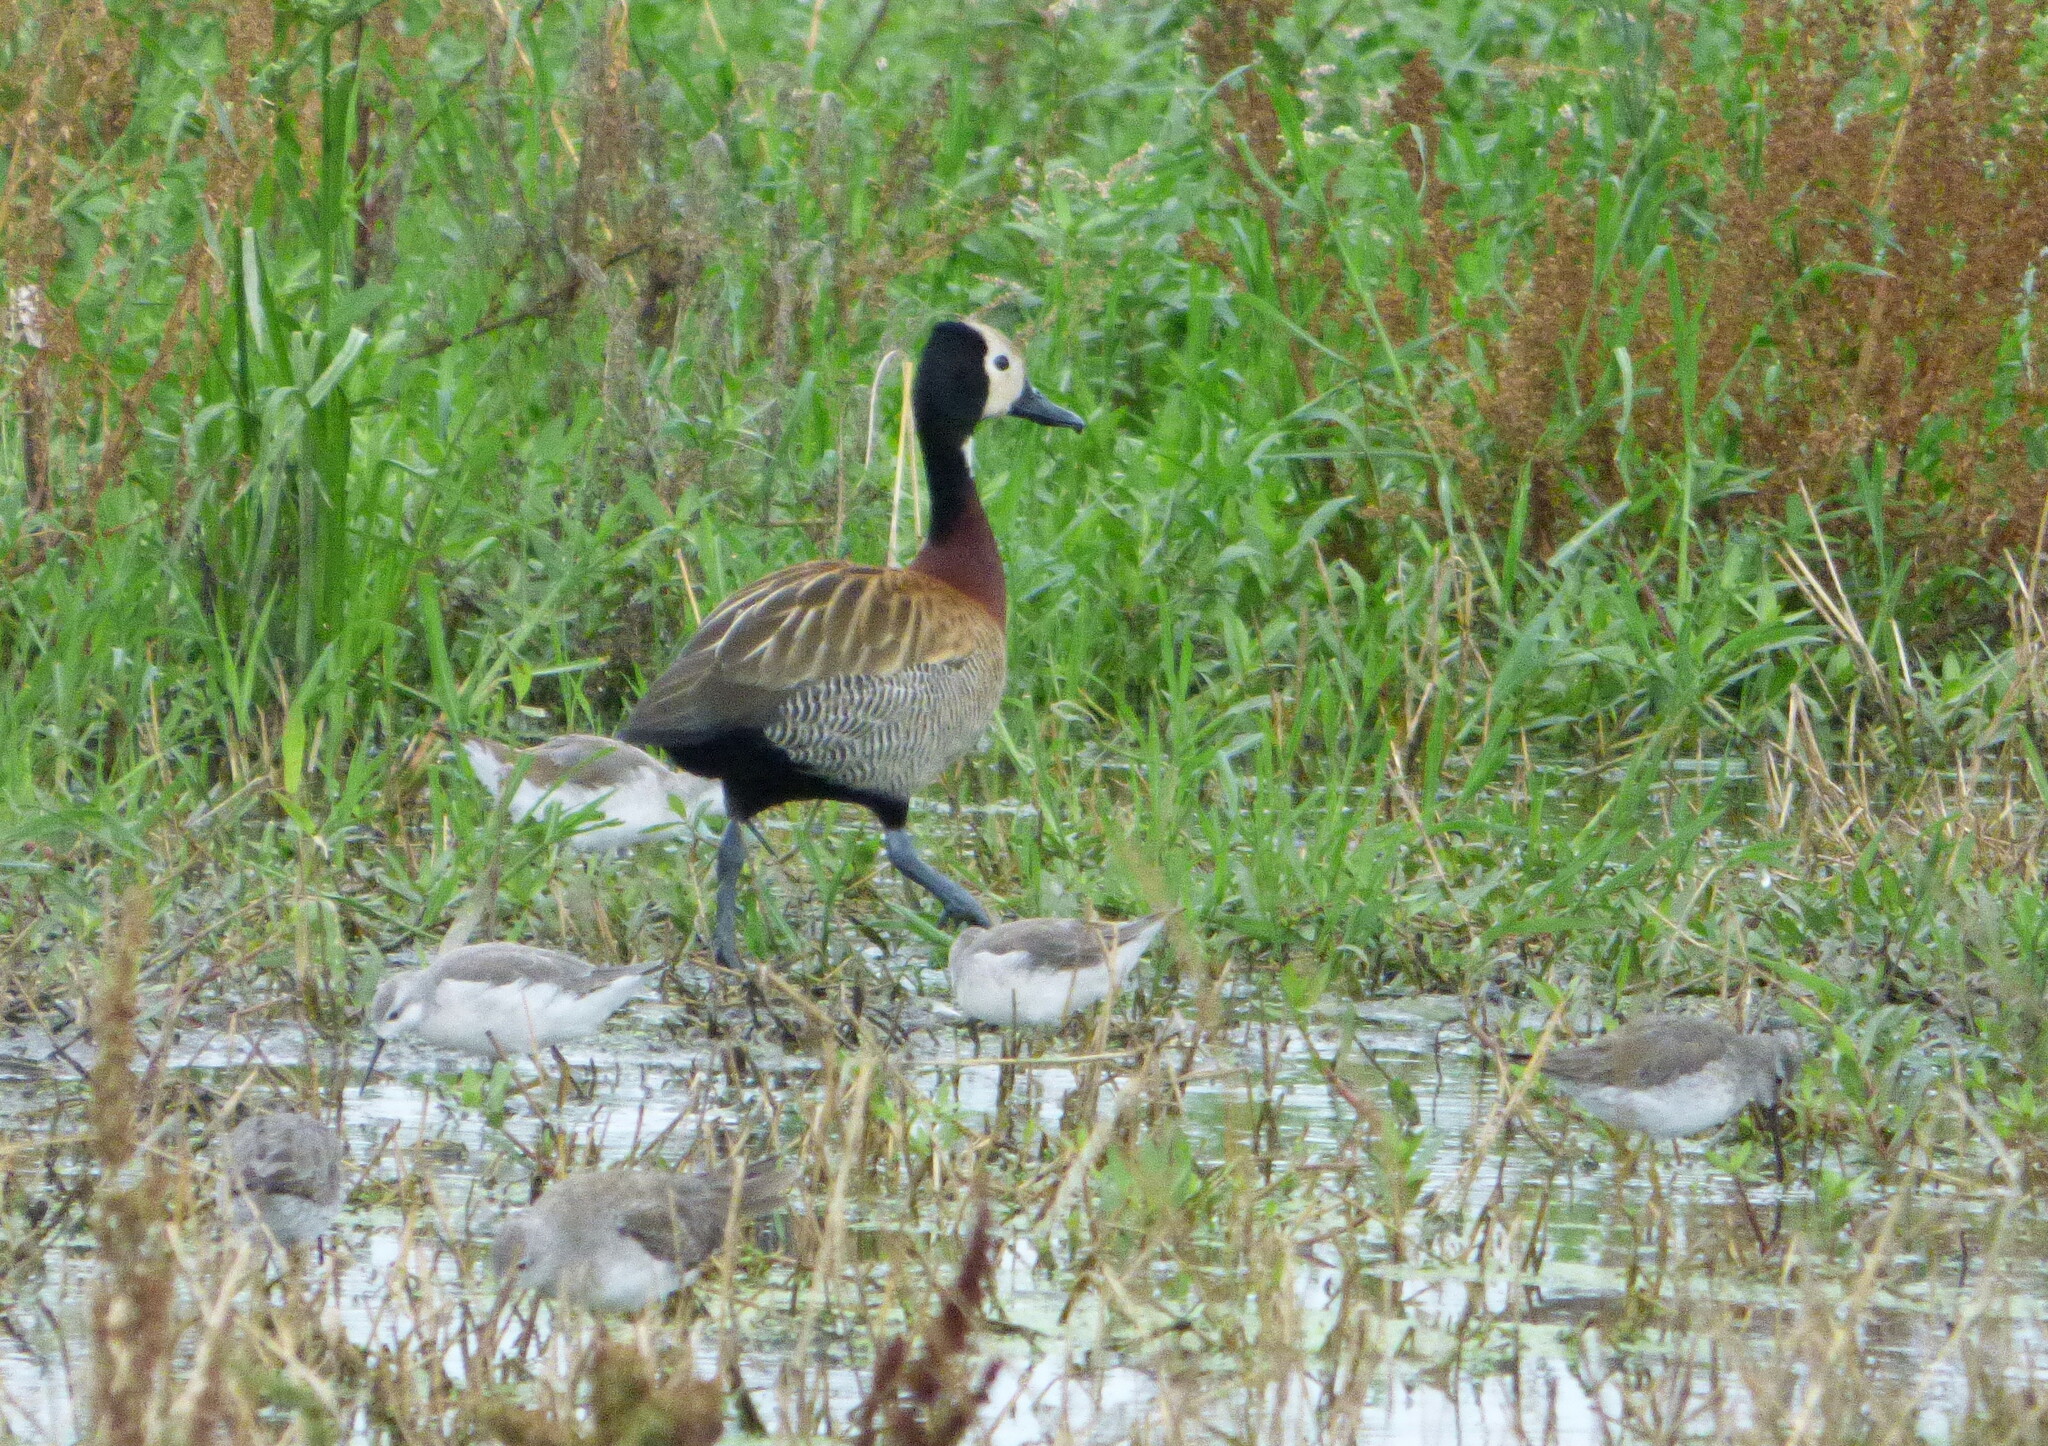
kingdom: Animalia
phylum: Chordata
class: Aves
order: Charadriiformes
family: Scolopacidae
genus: Phalaropus
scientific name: Phalaropus tricolor
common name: Wilson's phalarope
